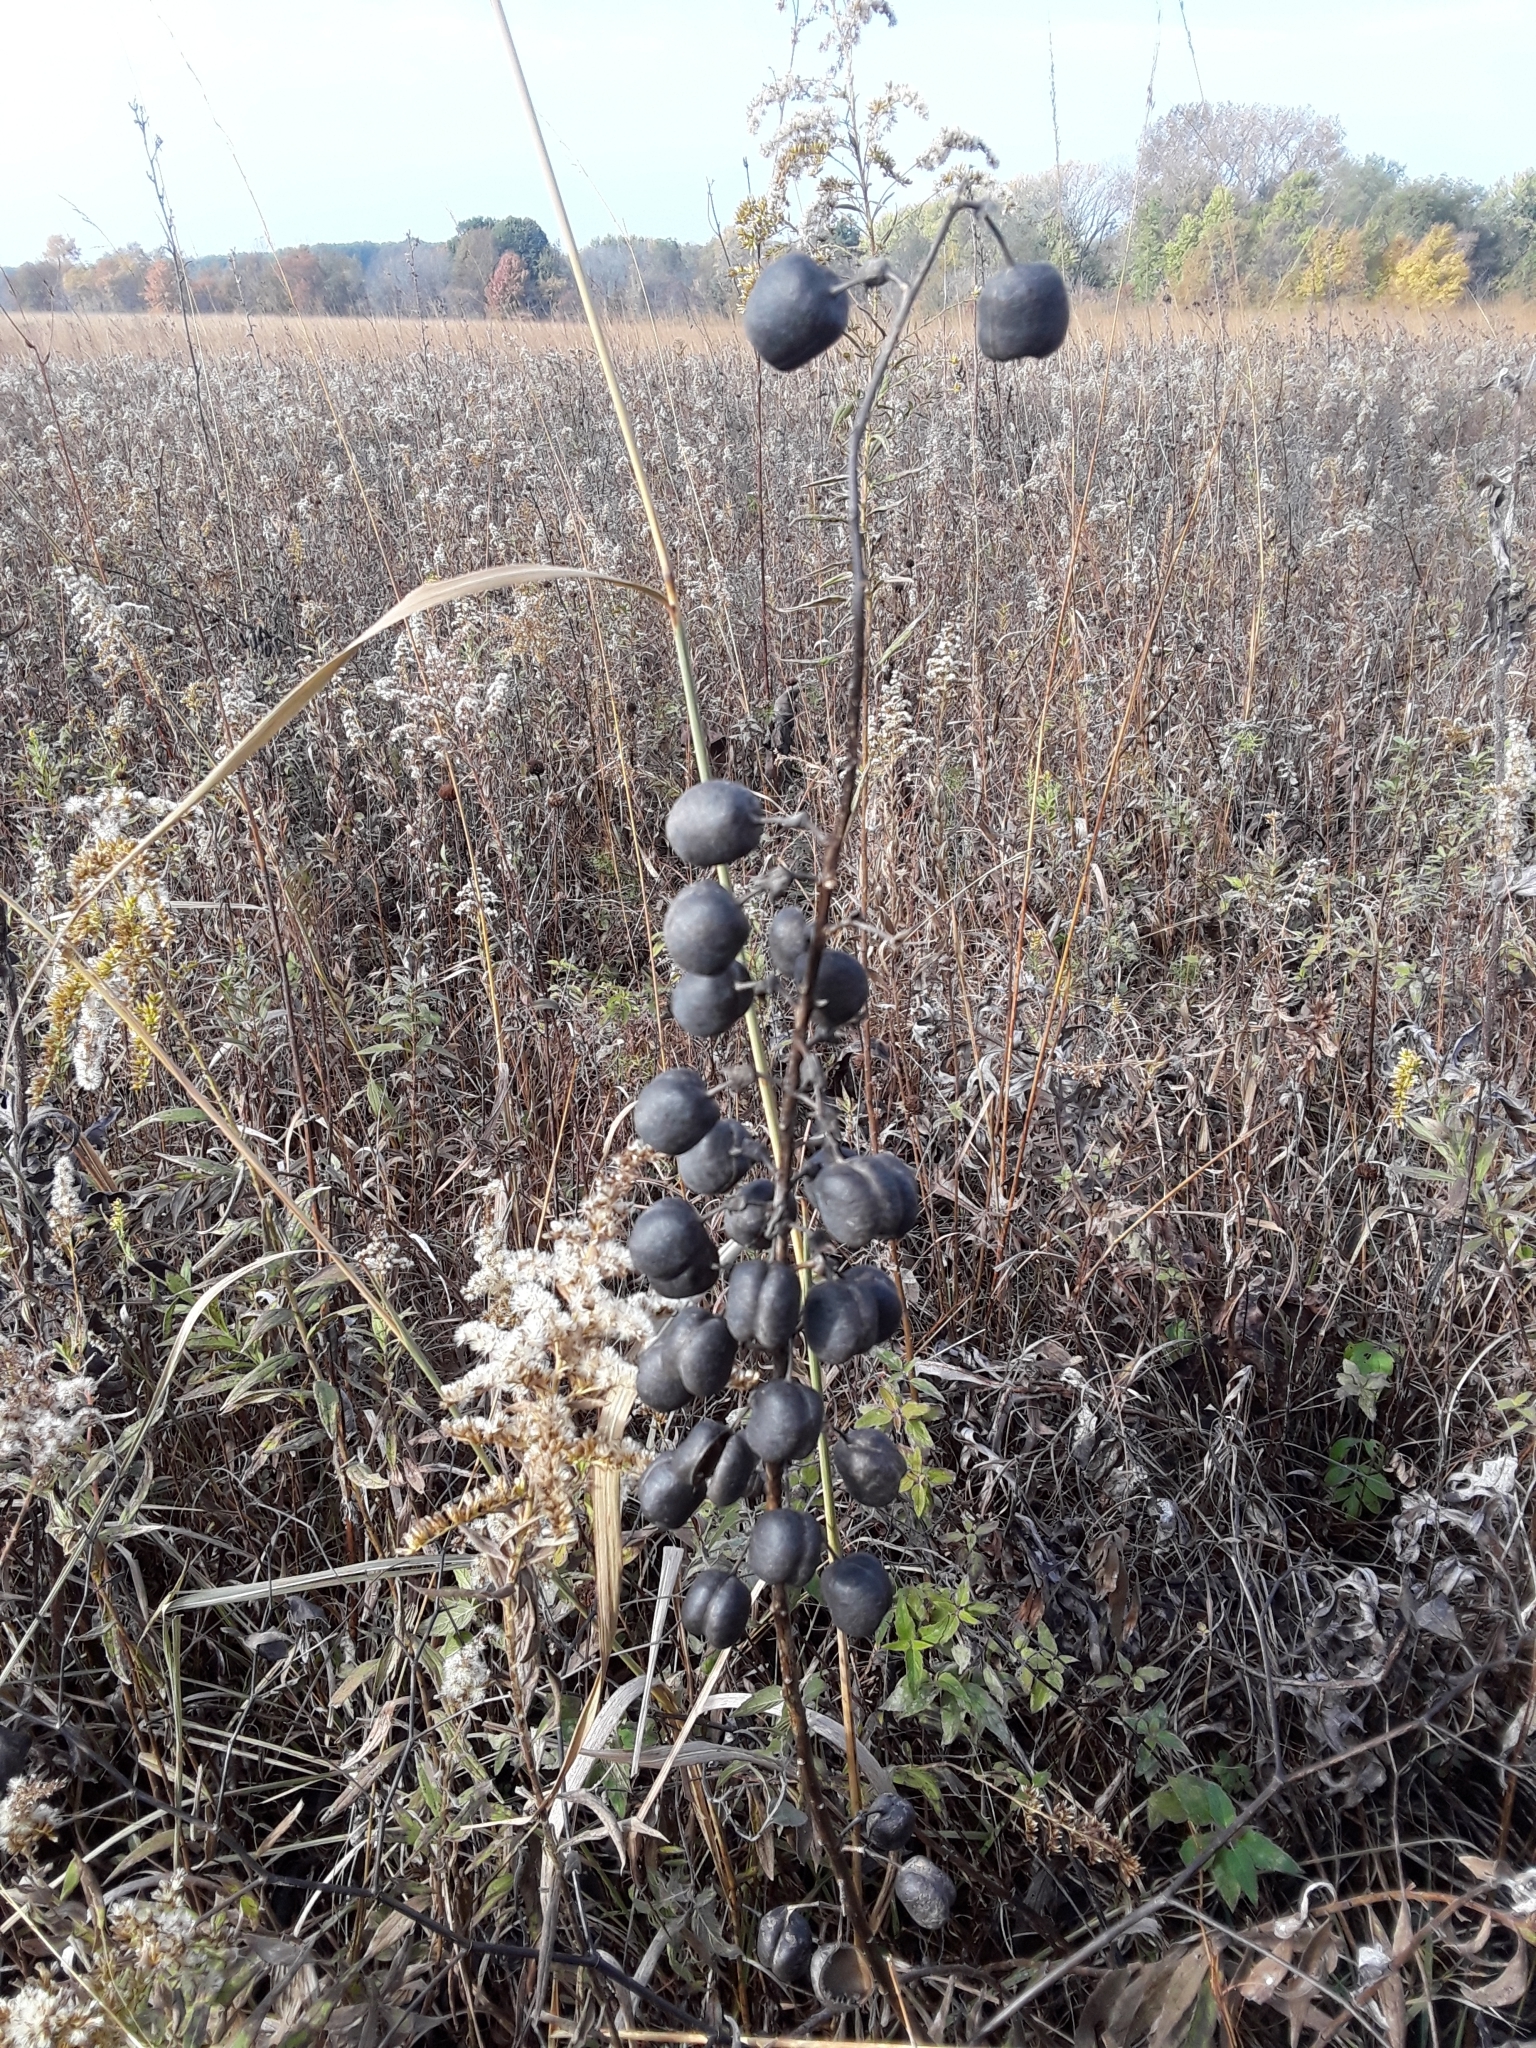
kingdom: Plantae
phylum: Tracheophyta
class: Magnoliopsida
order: Fabales
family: Fabaceae
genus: Baptisia
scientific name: Baptisia alba
